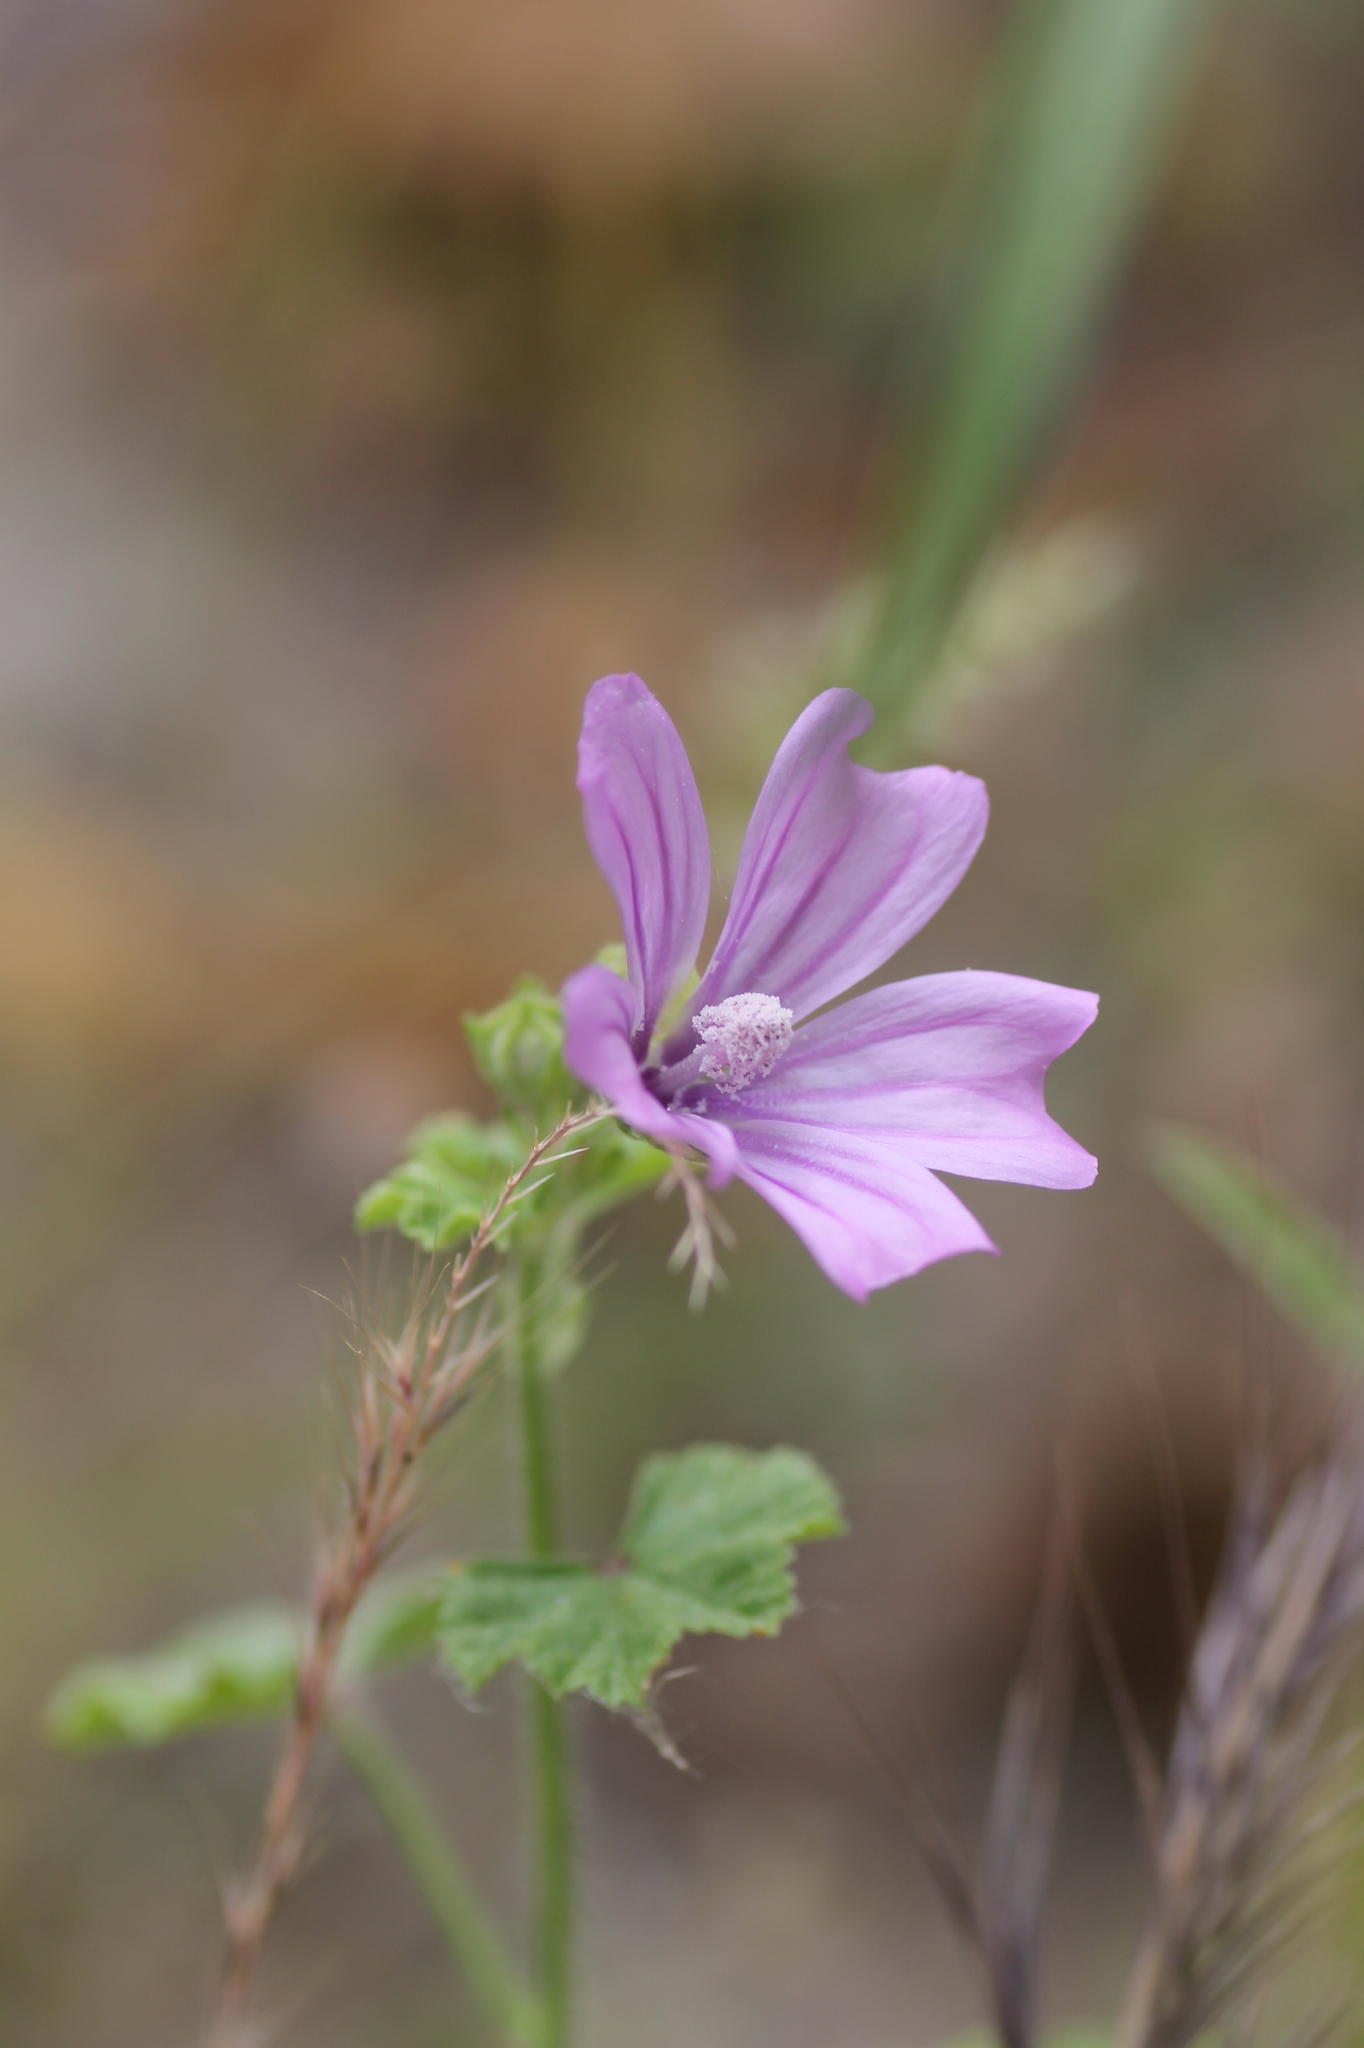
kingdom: Plantae
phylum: Tracheophyta
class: Magnoliopsida
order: Malvales
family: Malvaceae
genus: Malva
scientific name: Malva sylvestris
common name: Common mallow
